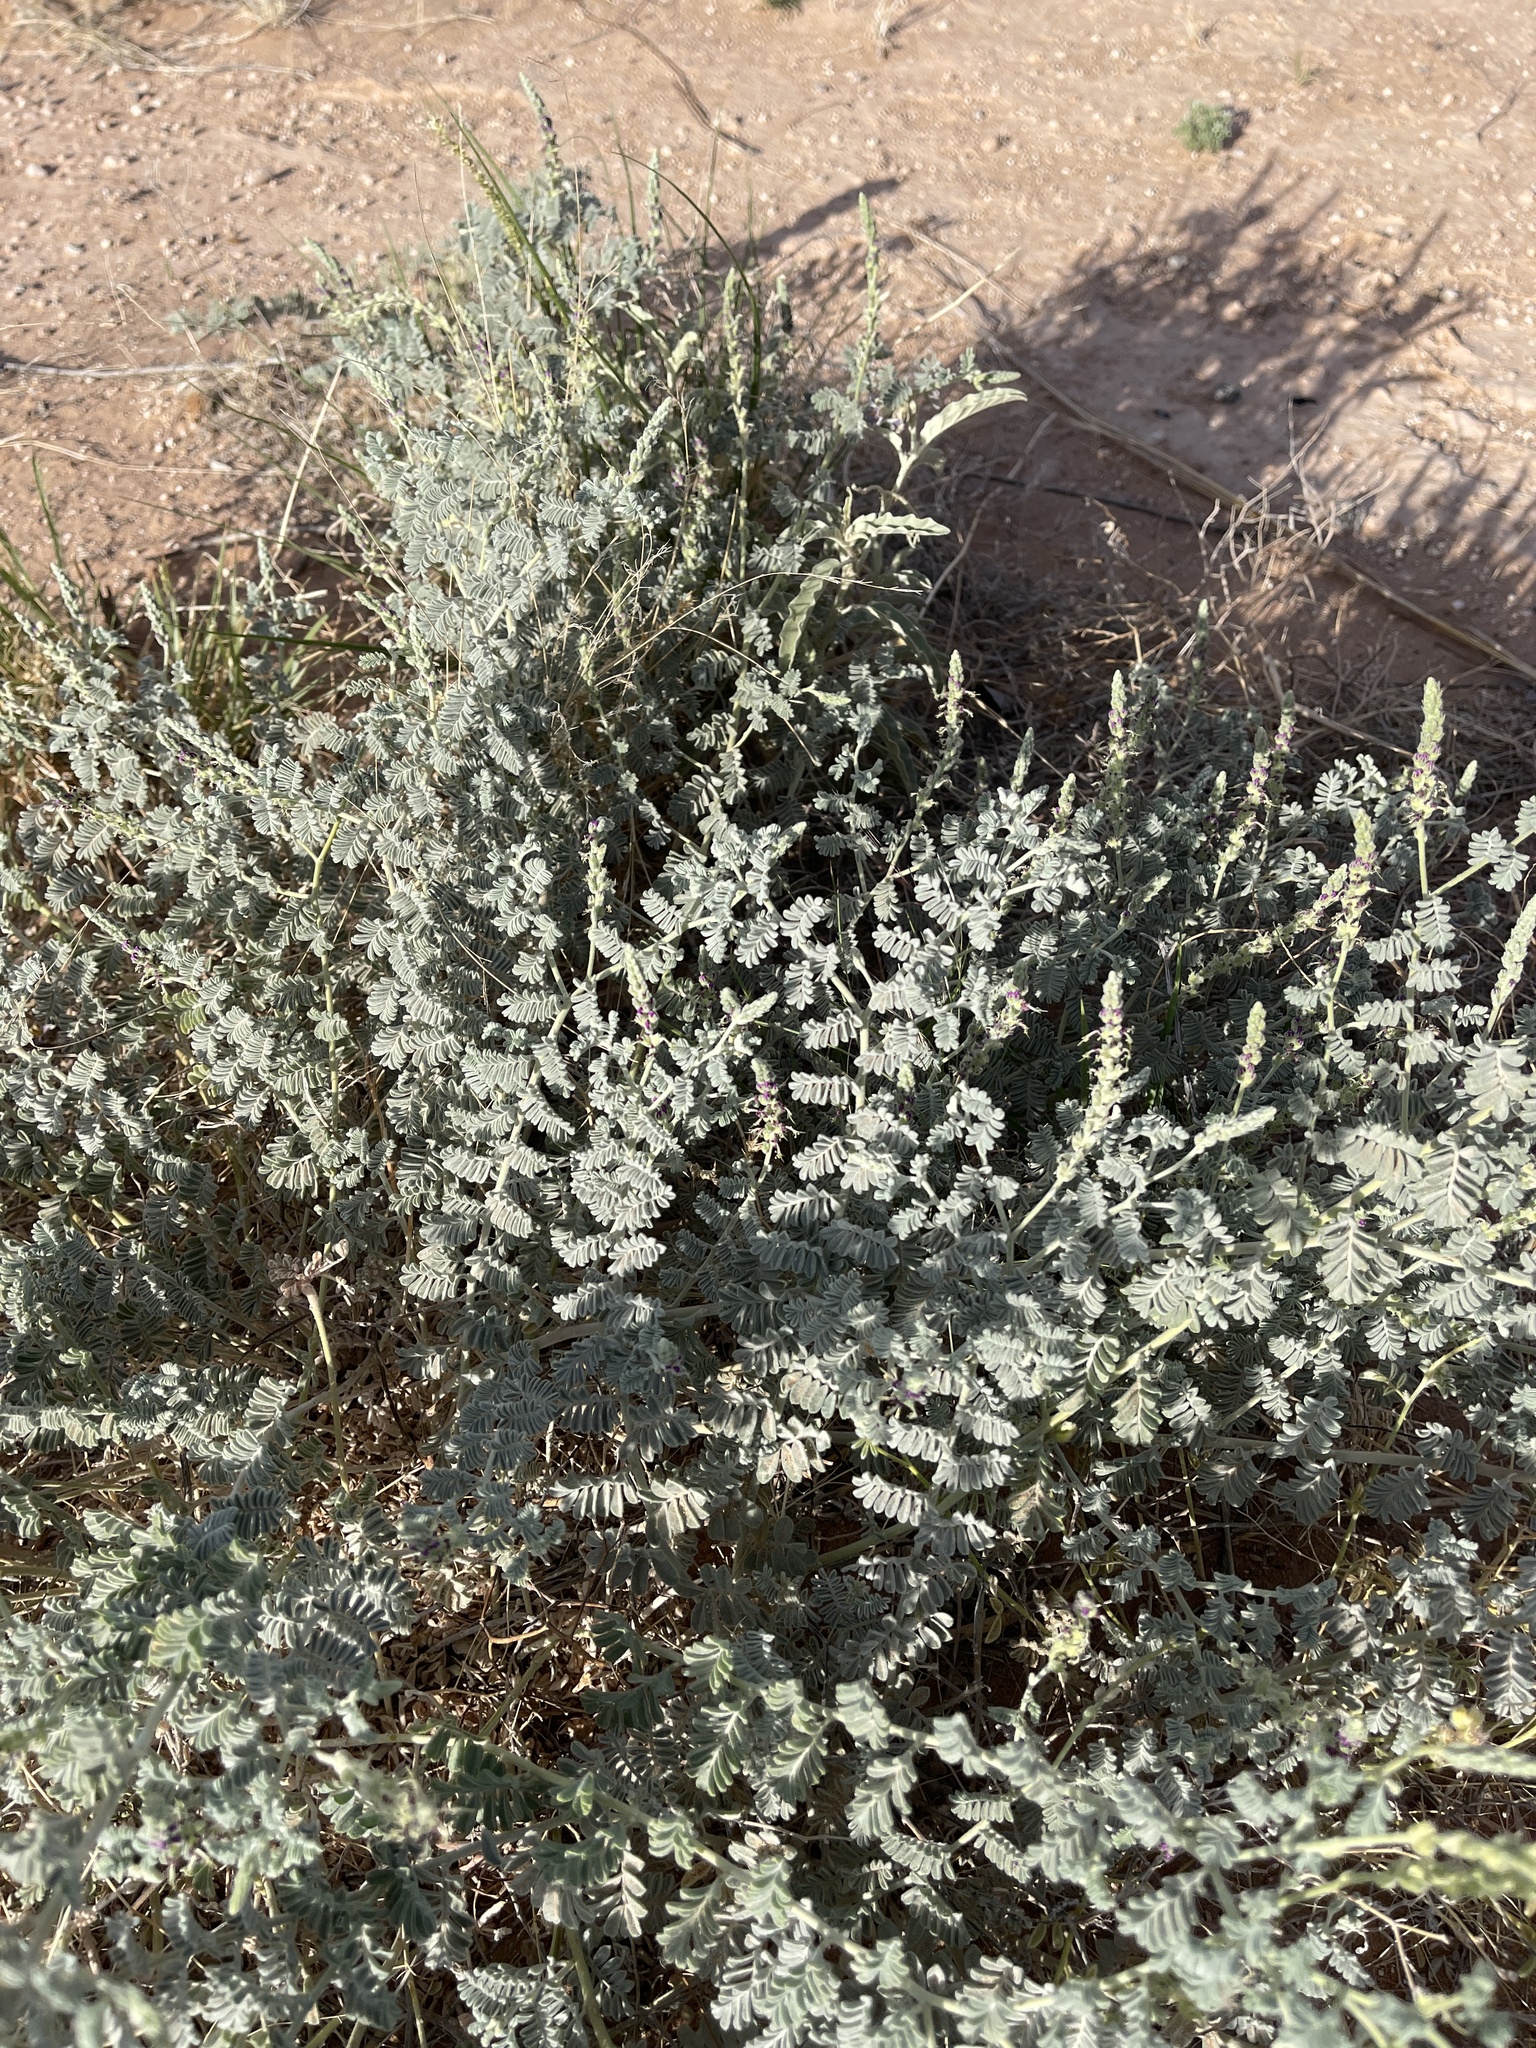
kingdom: Plantae
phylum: Tracheophyta
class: Magnoliopsida
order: Fabales
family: Fabaceae
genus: Dalea
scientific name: Dalea lanata
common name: Woolly dalea
